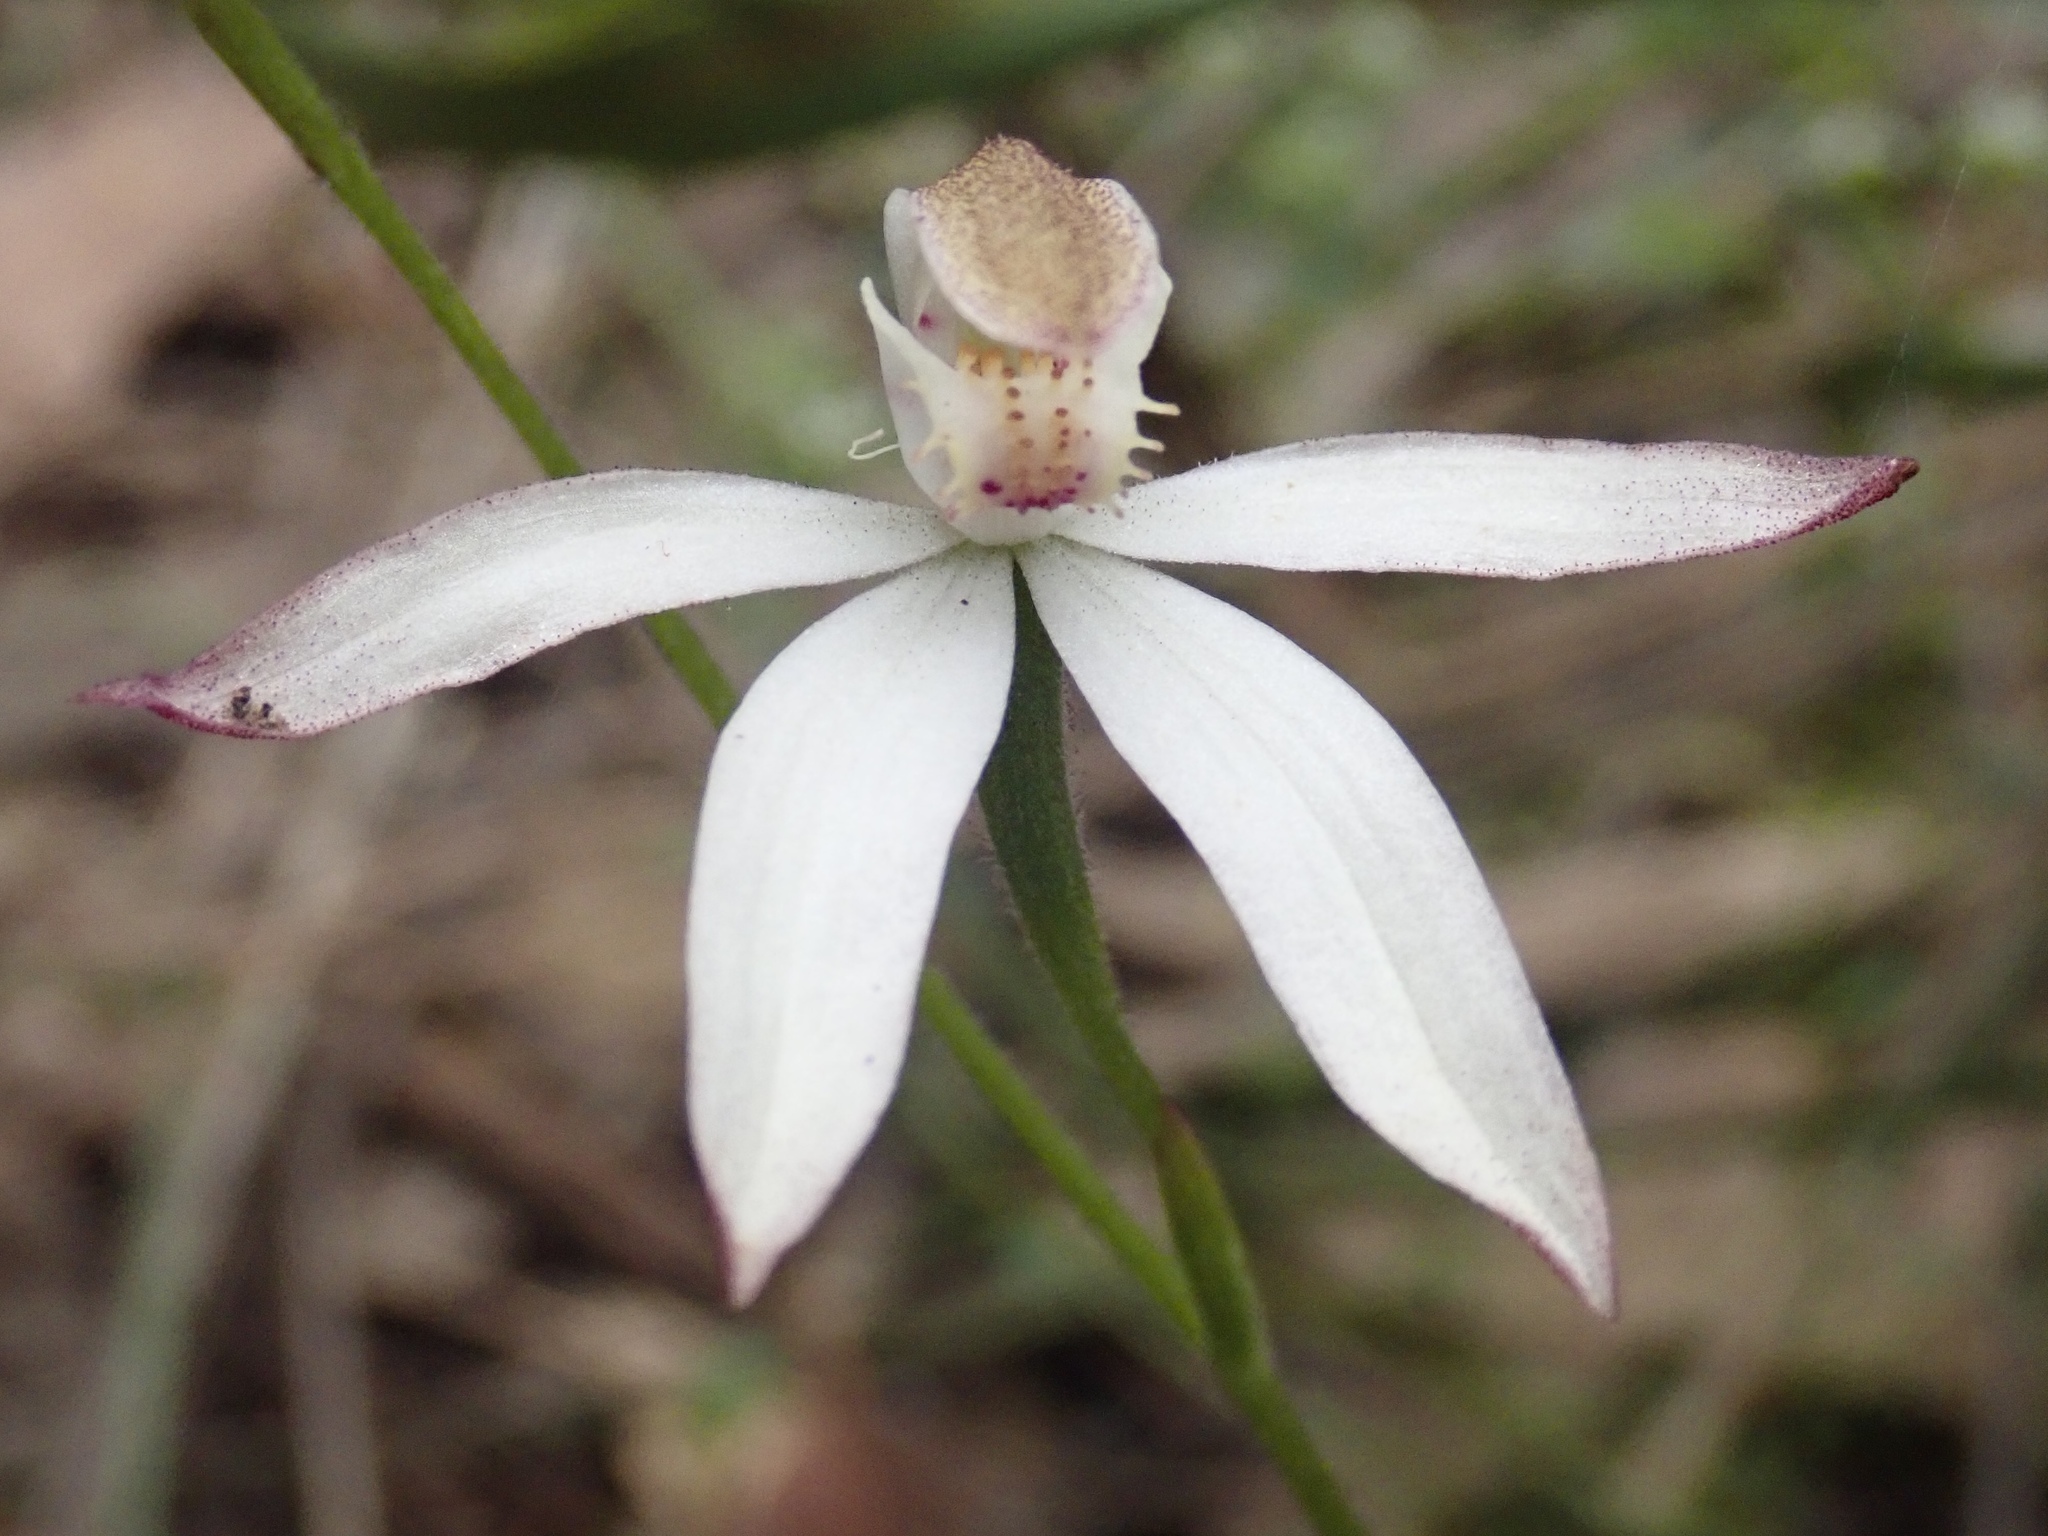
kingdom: Plantae
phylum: Tracheophyta
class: Liliopsida
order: Asparagales
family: Orchidaceae
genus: Caladenia
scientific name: Caladenia moschata
